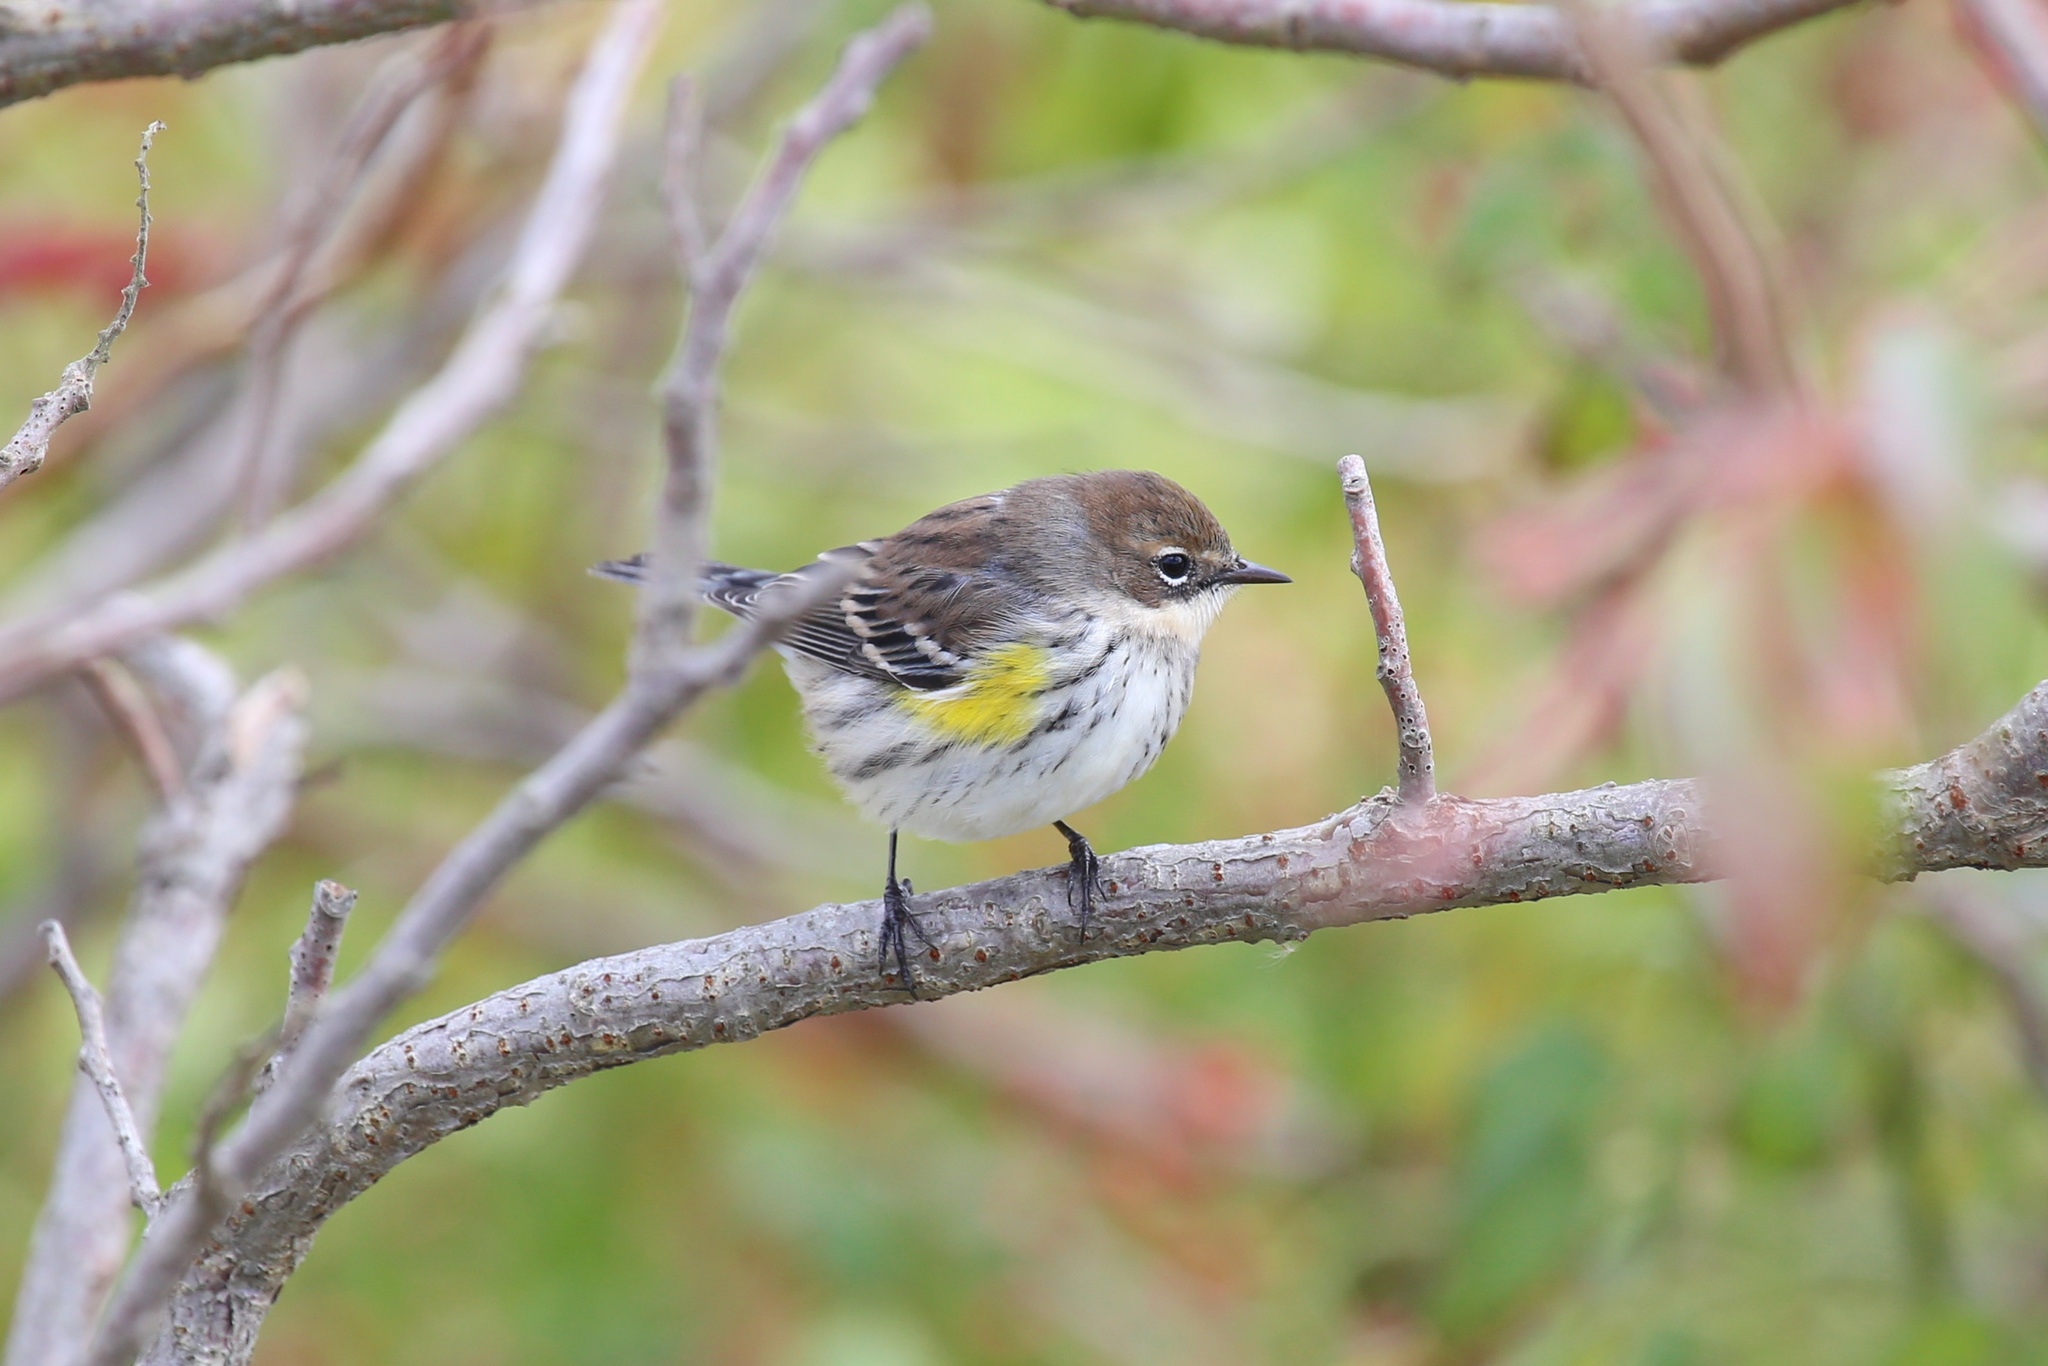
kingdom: Animalia
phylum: Chordata
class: Aves
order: Passeriformes
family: Parulidae
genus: Setophaga
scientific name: Setophaga coronata
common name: Myrtle warbler
